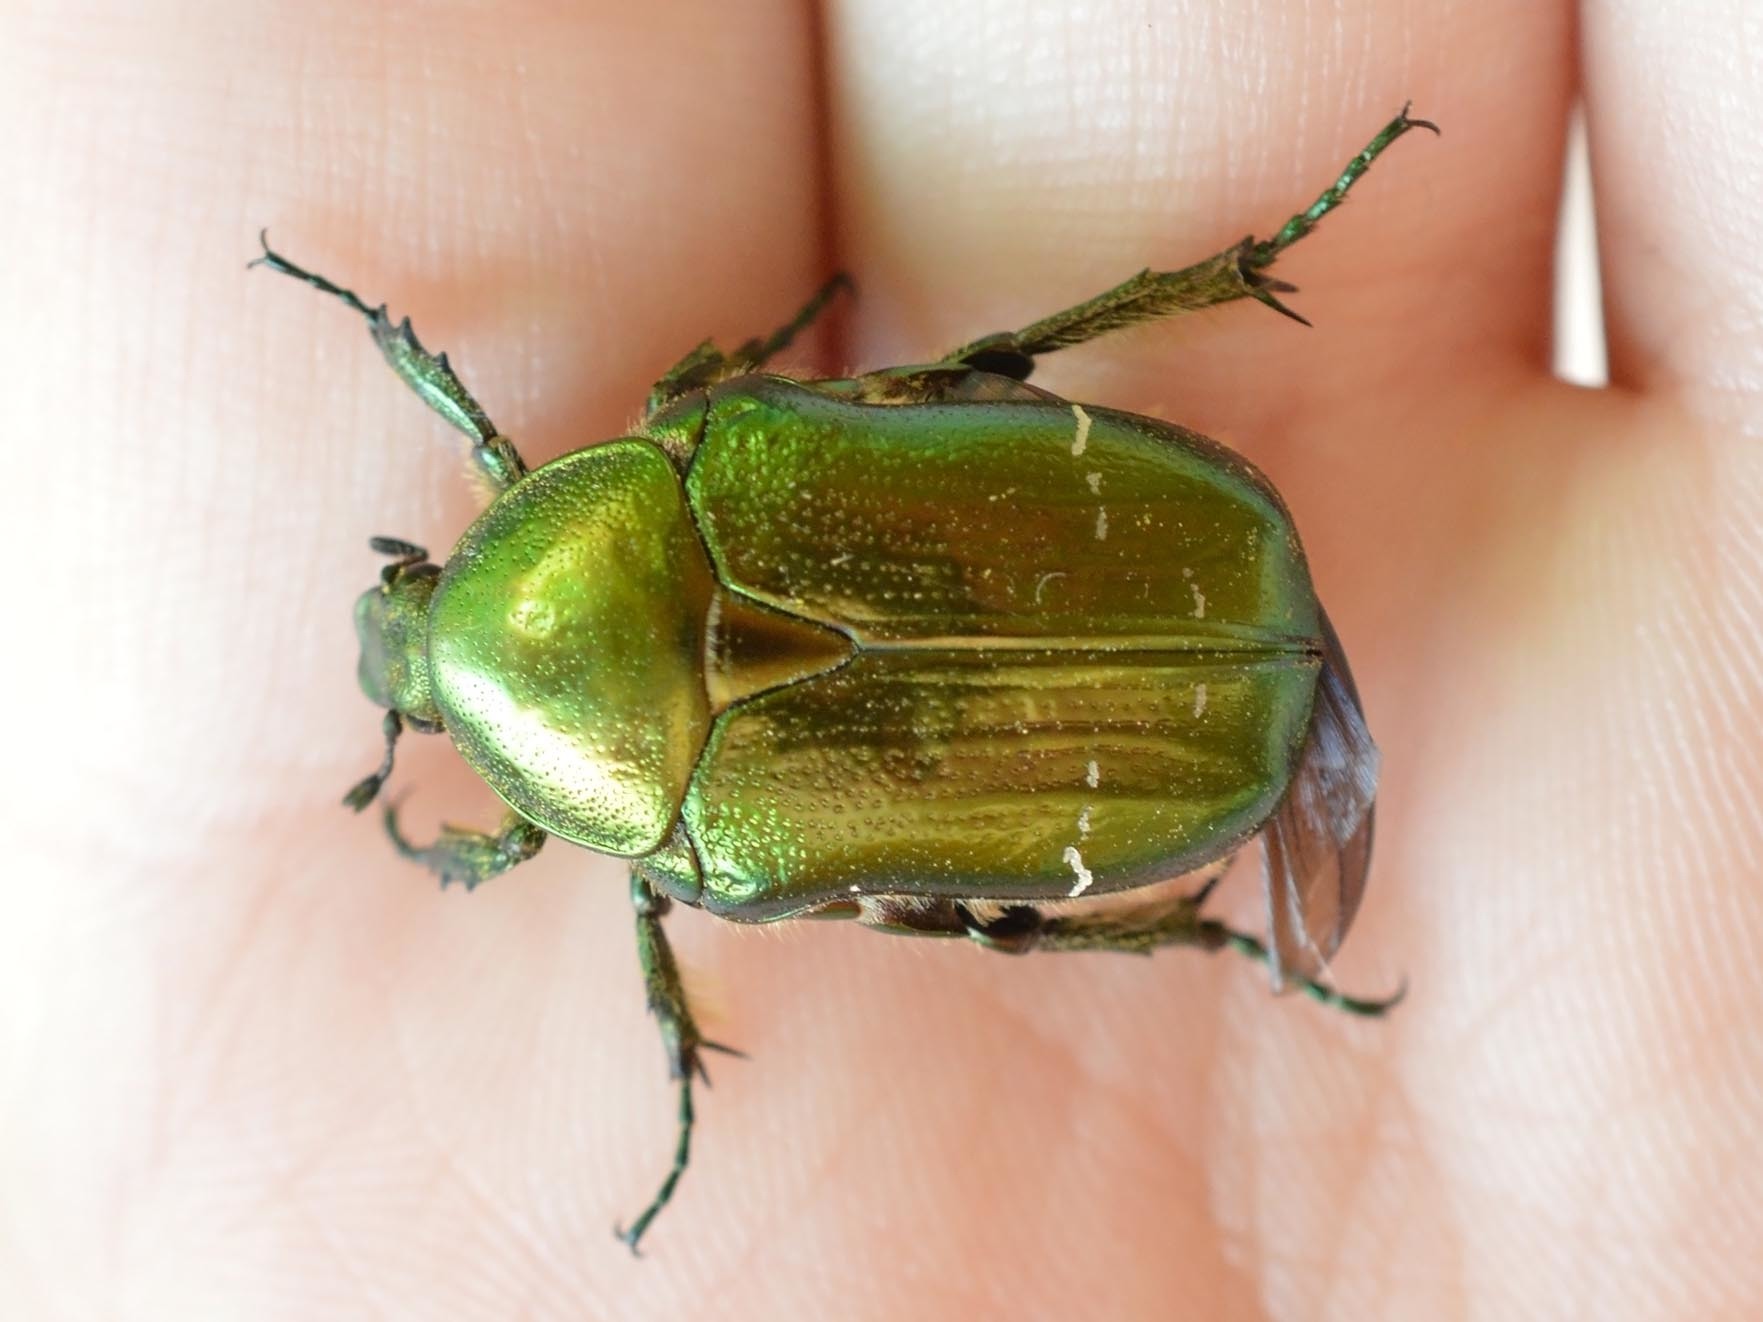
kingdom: Animalia
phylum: Arthropoda
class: Insecta
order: Coleoptera
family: Scarabaeidae
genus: Cetonia
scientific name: Cetonia aurata
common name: Rose chafer
